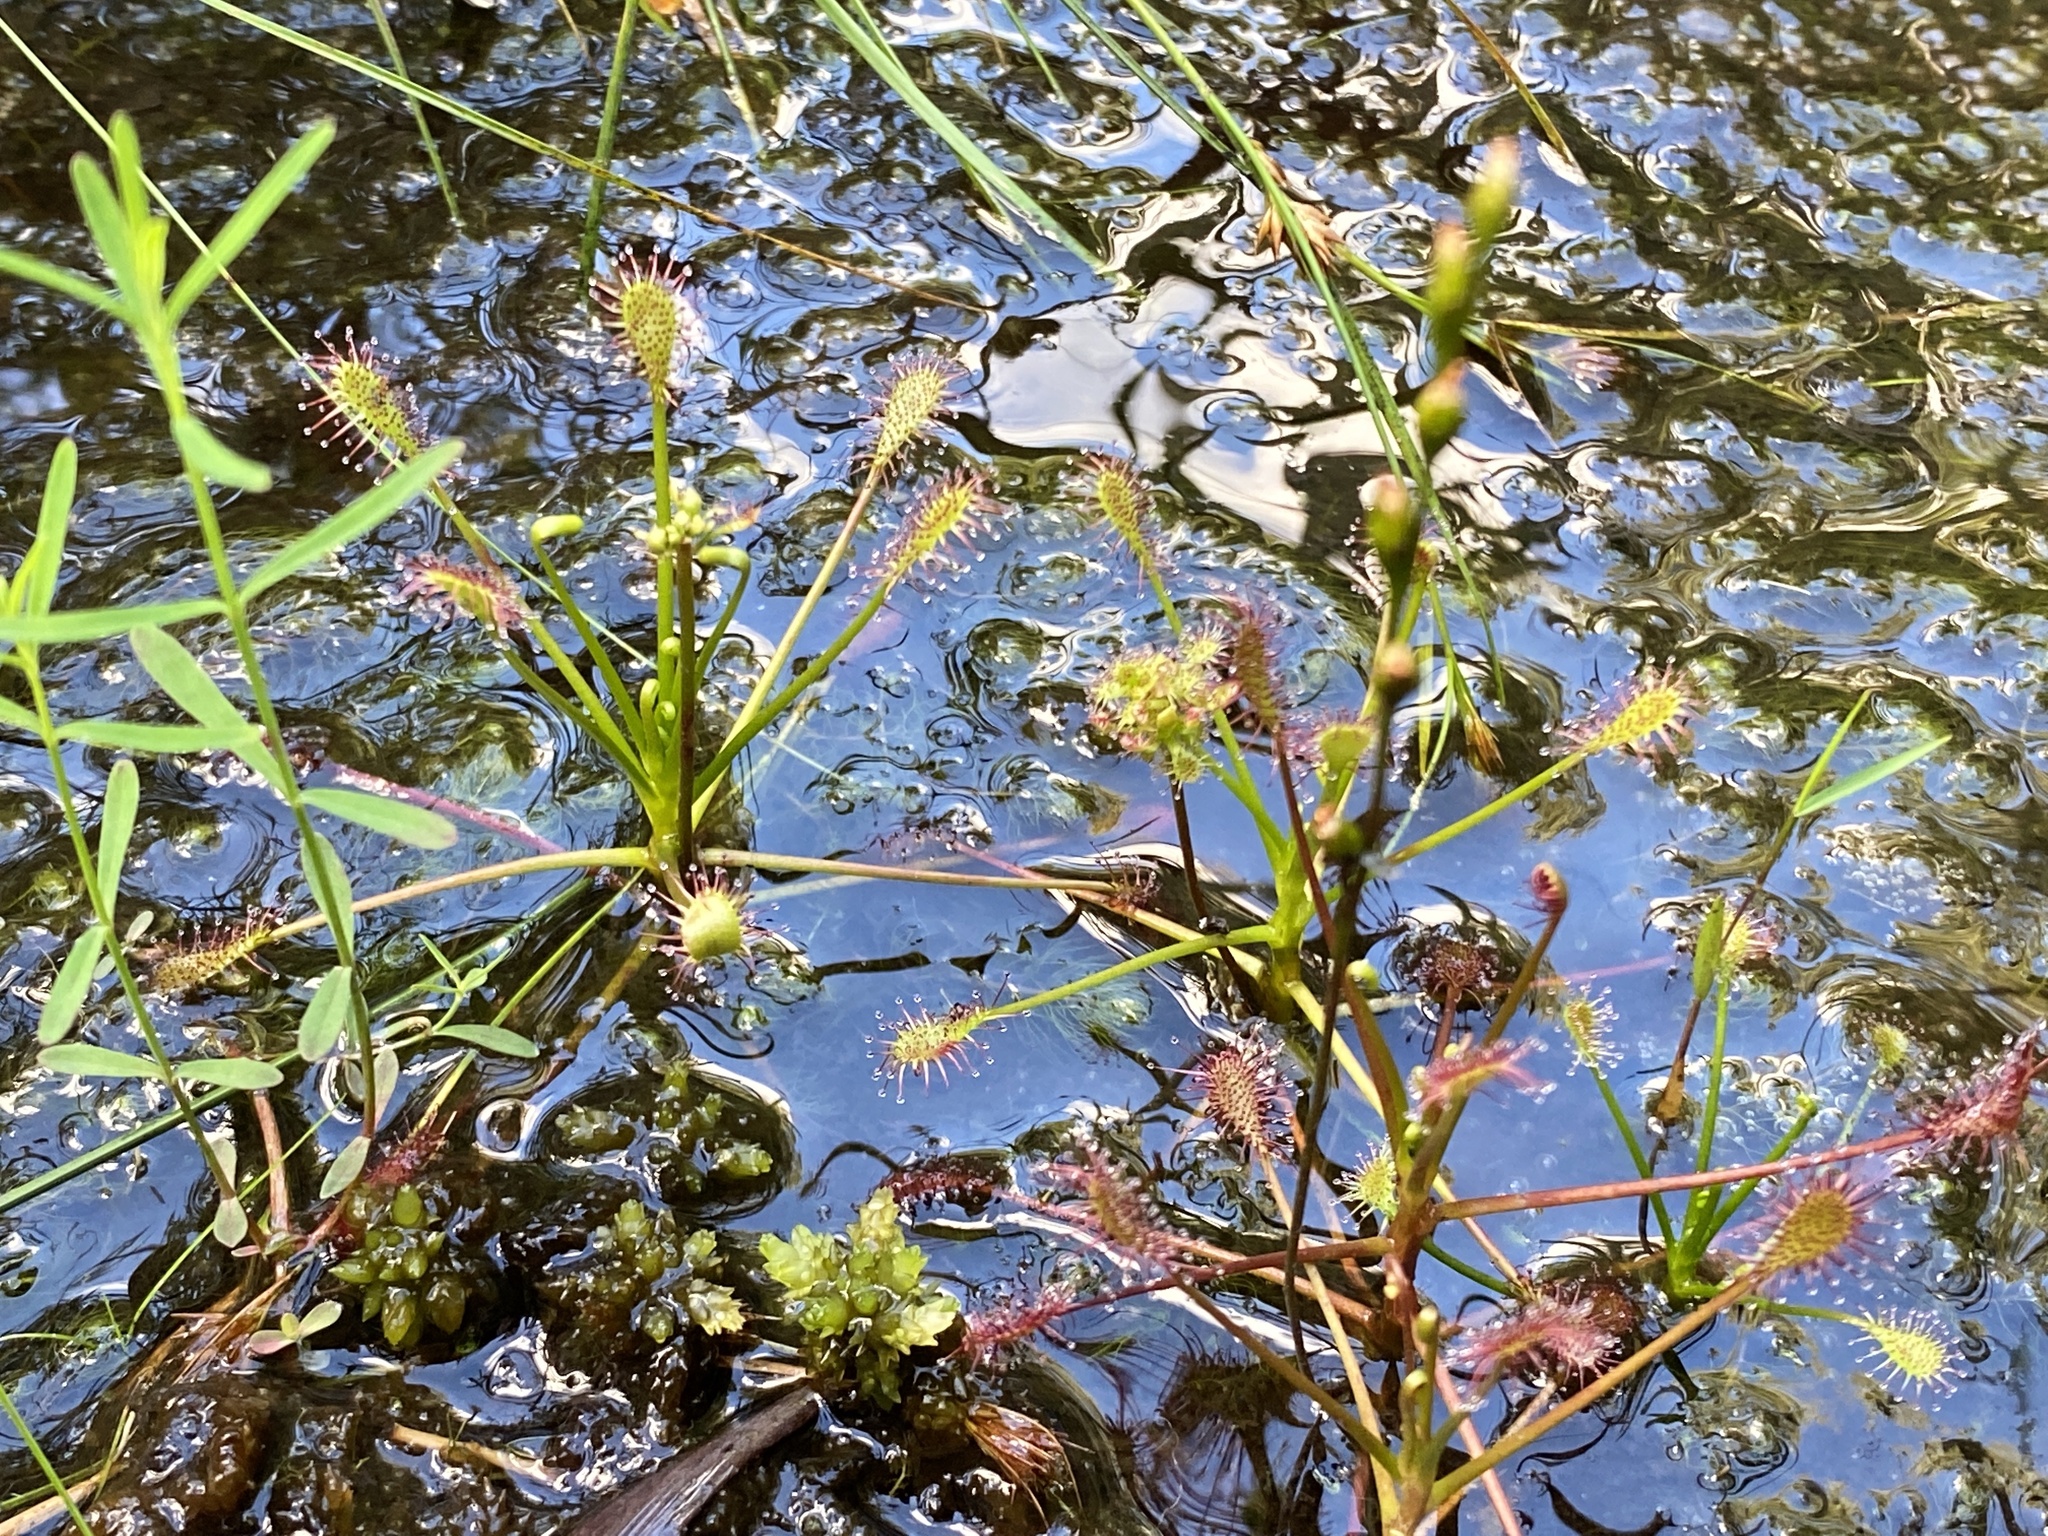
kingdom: Plantae
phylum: Tracheophyta
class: Magnoliopsida
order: Caryophyllales
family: Droseraceae
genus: Drosera
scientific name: Drosera intermedia
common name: Oblong-leaved sundew
